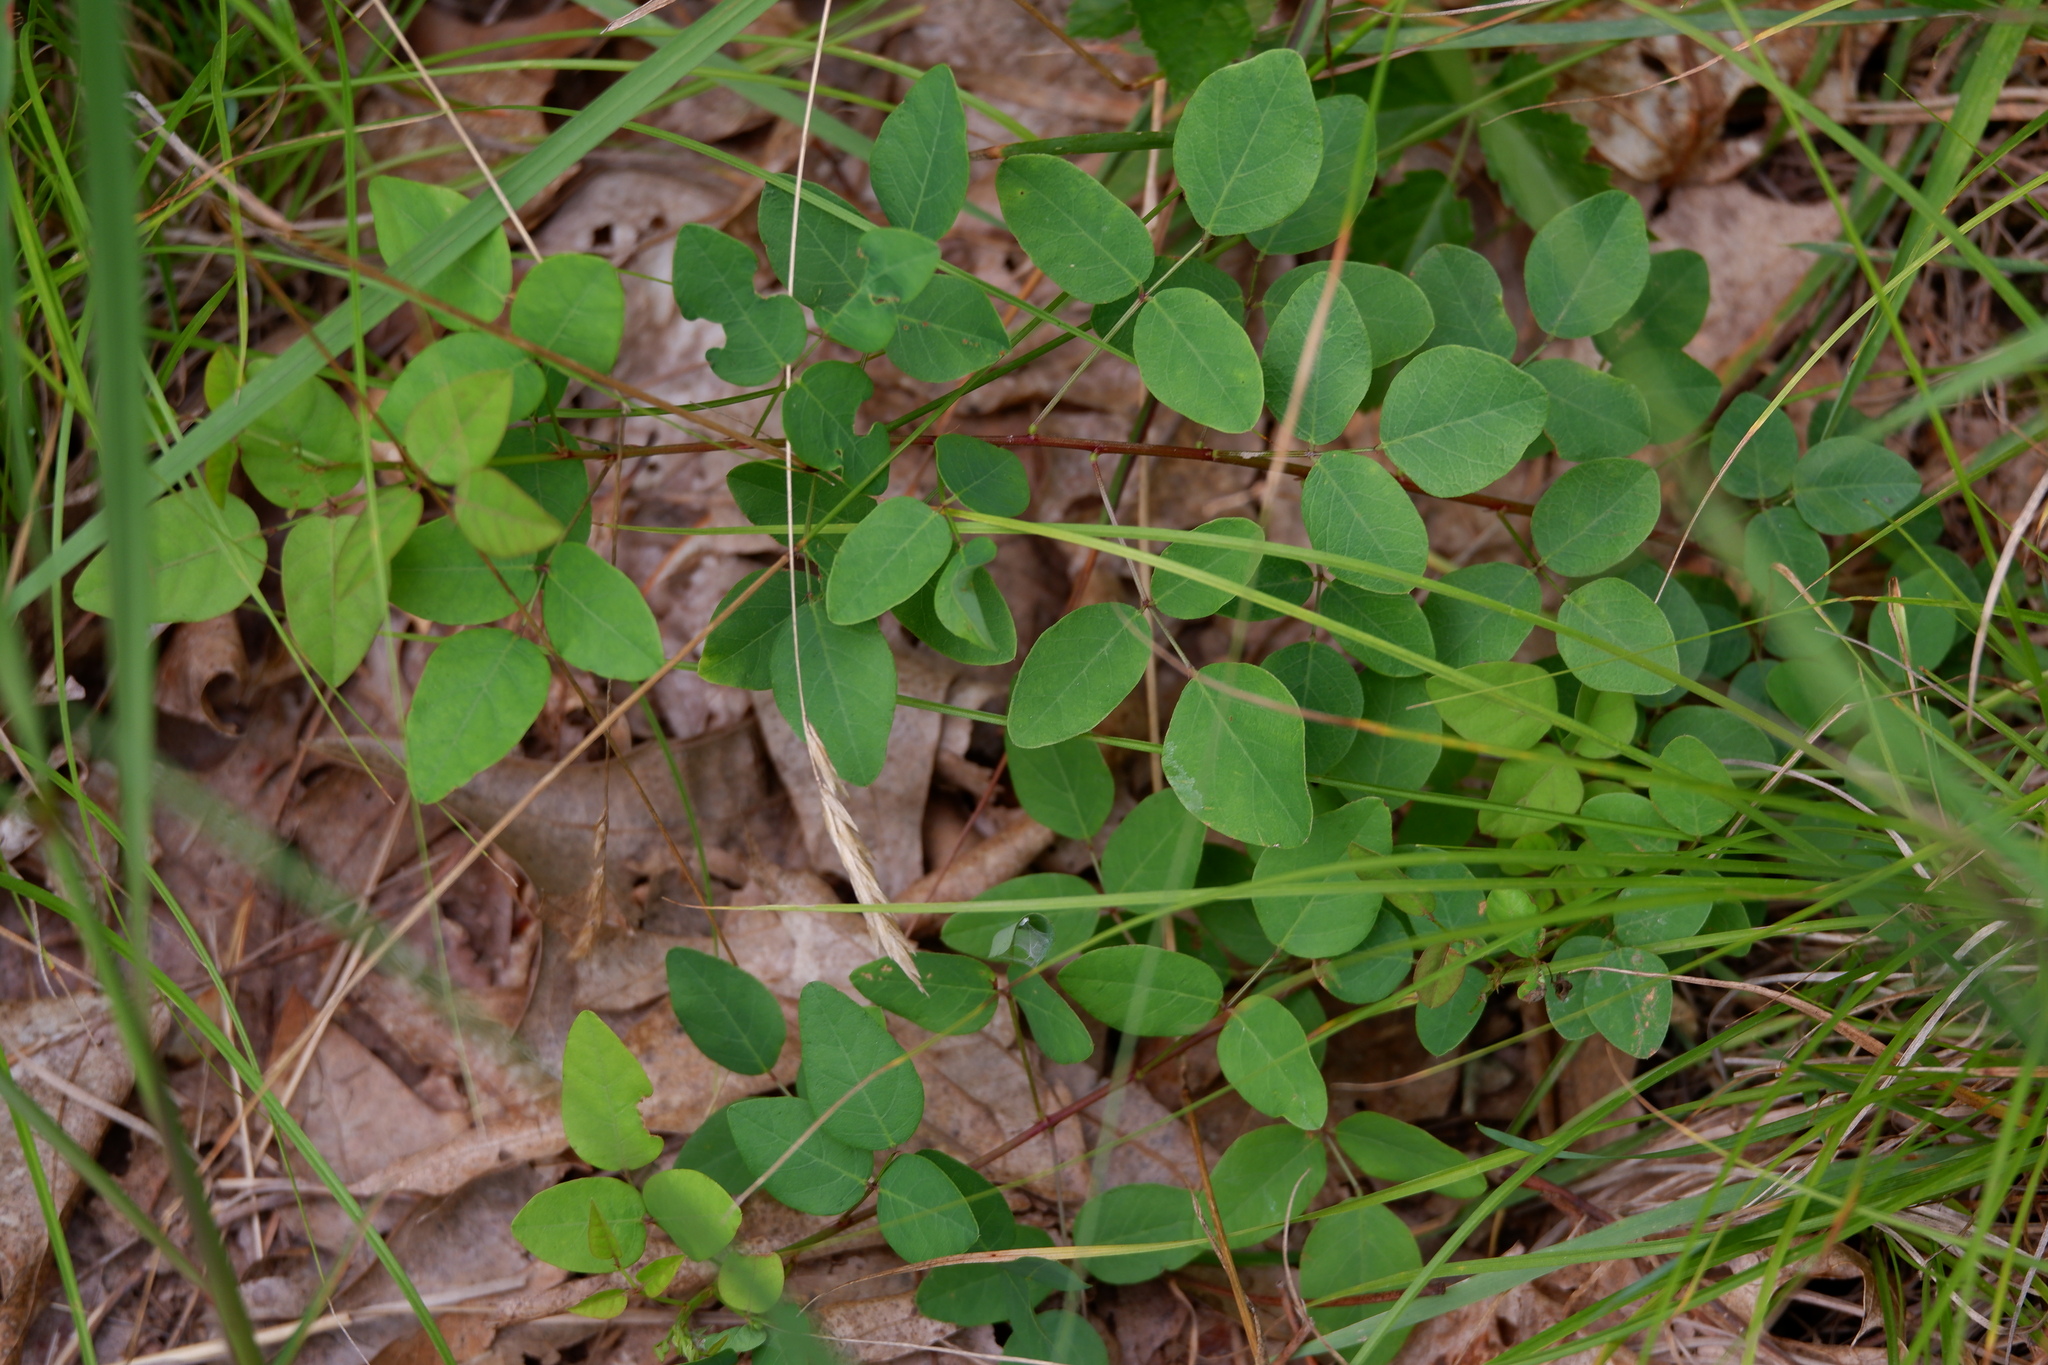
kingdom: Plantae
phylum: Tracheophyta
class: Magnoliopsida
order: Fabales
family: Fabaceae
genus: Desmodium
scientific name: Desmodium marilandicum
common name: Maryland tick-trefoil
